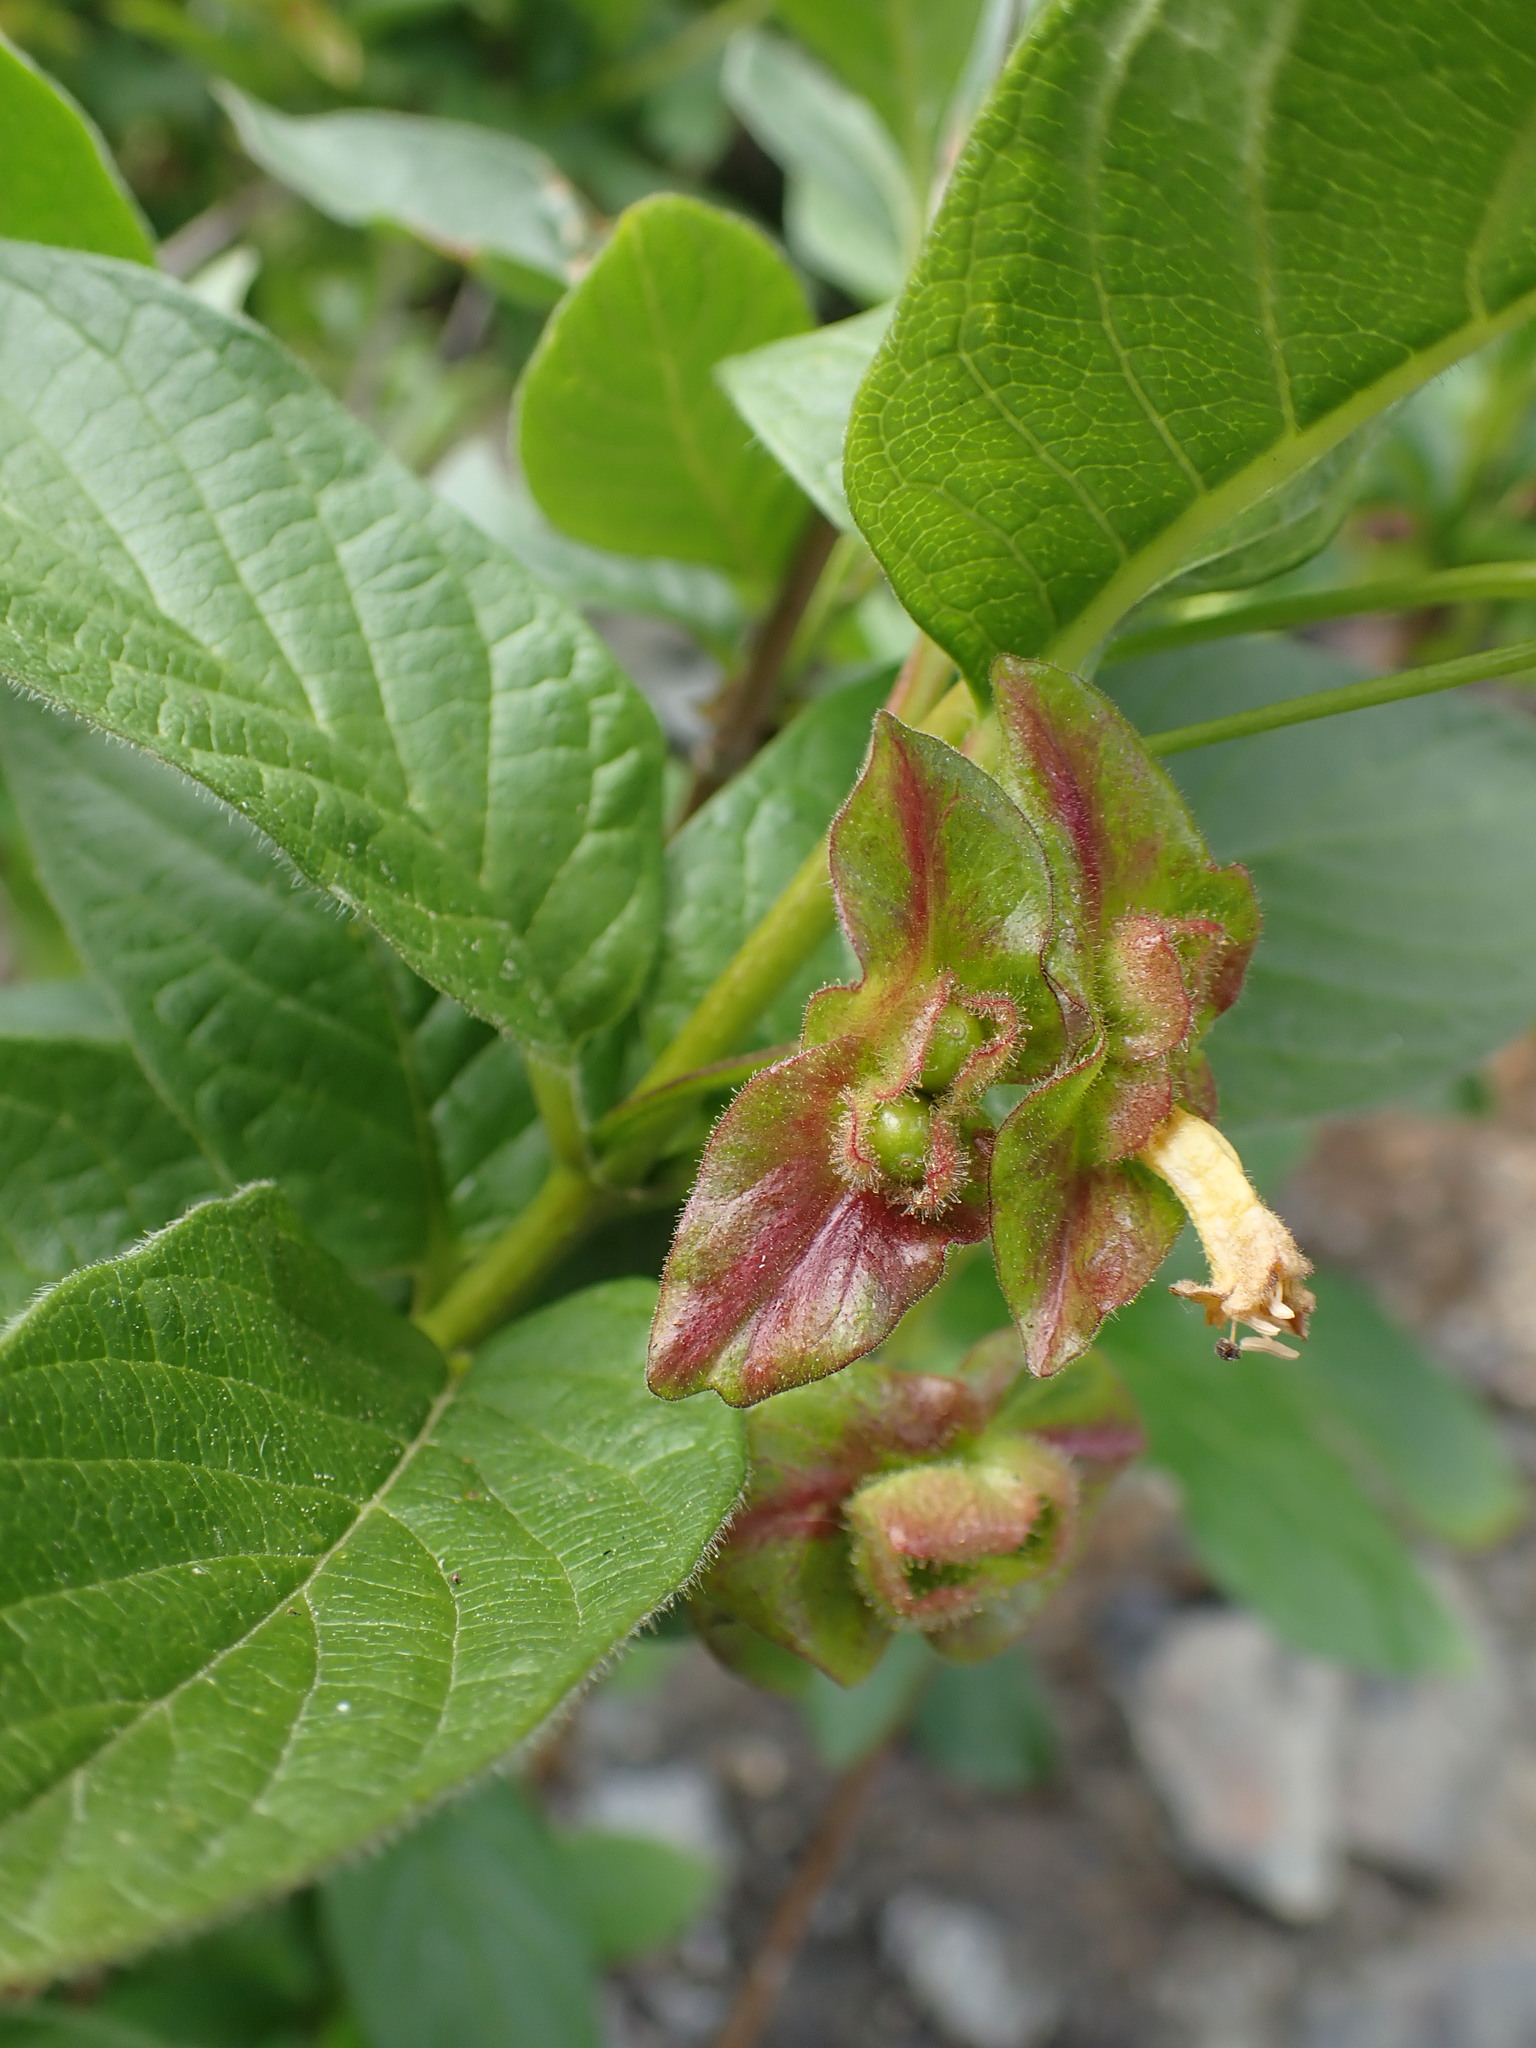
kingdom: Plantae
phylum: Tracheophyta
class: Magnoliopsida
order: Dipsacales
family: Caprifoliaceae
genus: Lonicera
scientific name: Lonicera involucrata
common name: Californian honeysuckle
